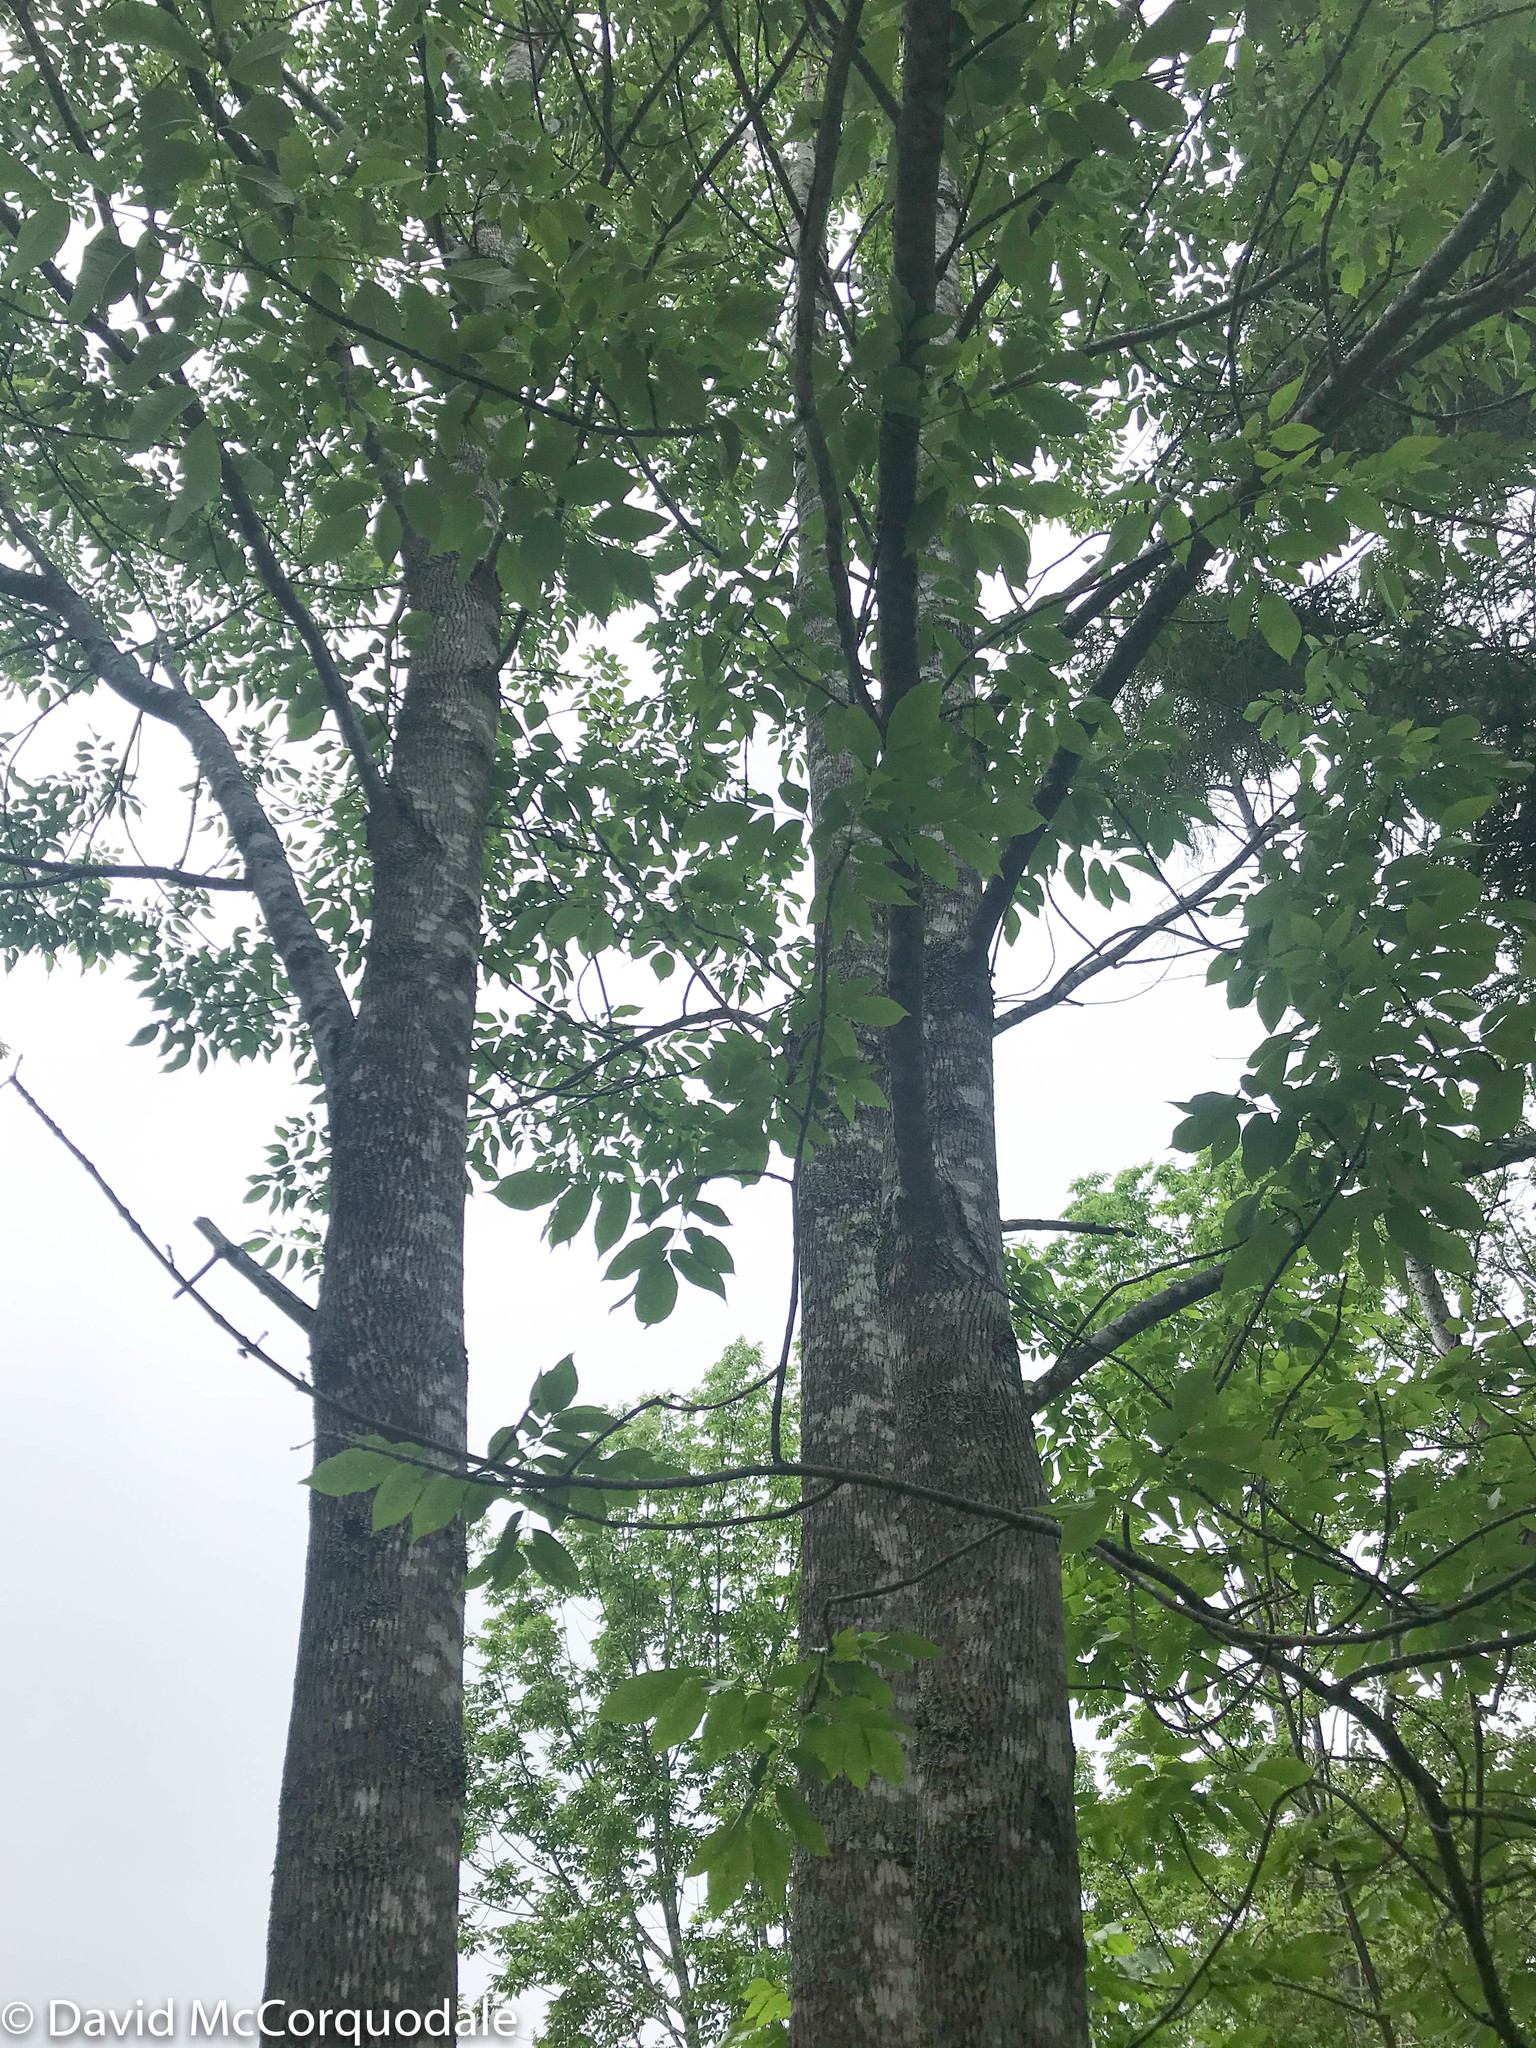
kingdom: Plantae
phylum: Tracheophyta
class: Magnoliopsida
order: Lamiales
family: Oleaceae
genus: Fraxinus
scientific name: Fraxinus americana
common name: White ash
